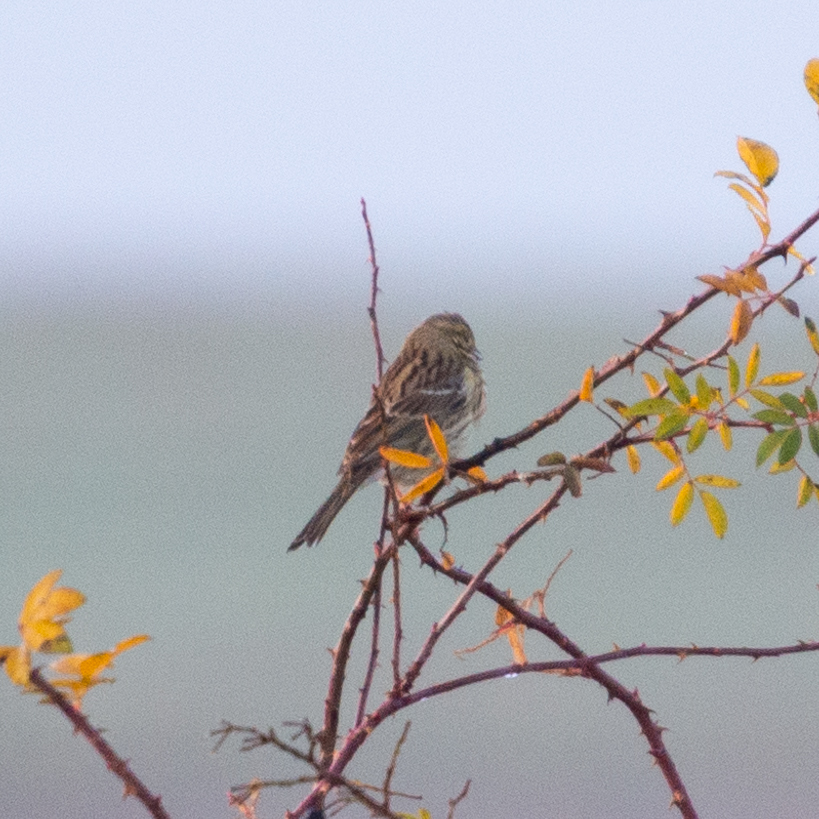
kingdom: Animalia
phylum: Chordata
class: Aves
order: Passeriformes
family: Emberizidae
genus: Emberiza
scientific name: Emberiza cirlus
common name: Cirl bunting
